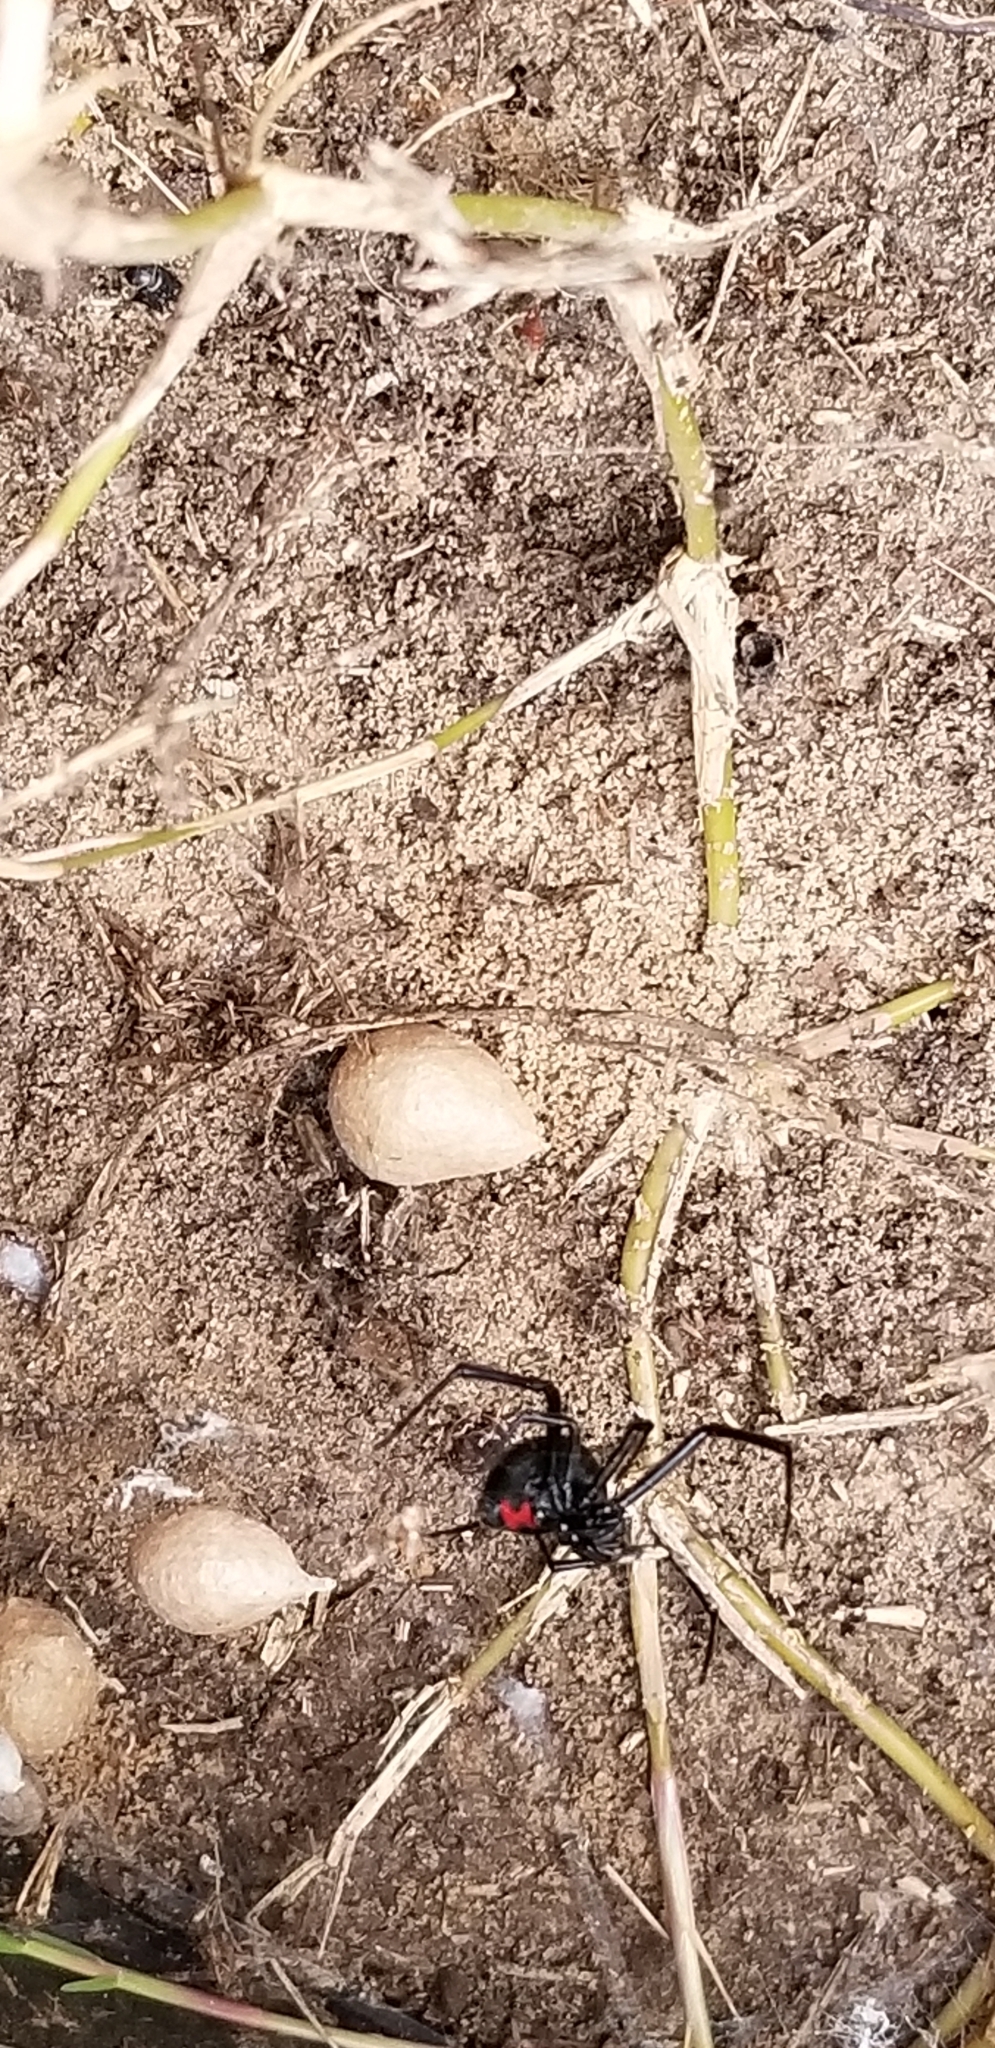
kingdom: Animalia
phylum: Arthropoda
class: Arachnida
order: Araneae
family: Theridiidae
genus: Latrodectus
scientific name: Latrodectus mactans
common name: Cobweb spiders
